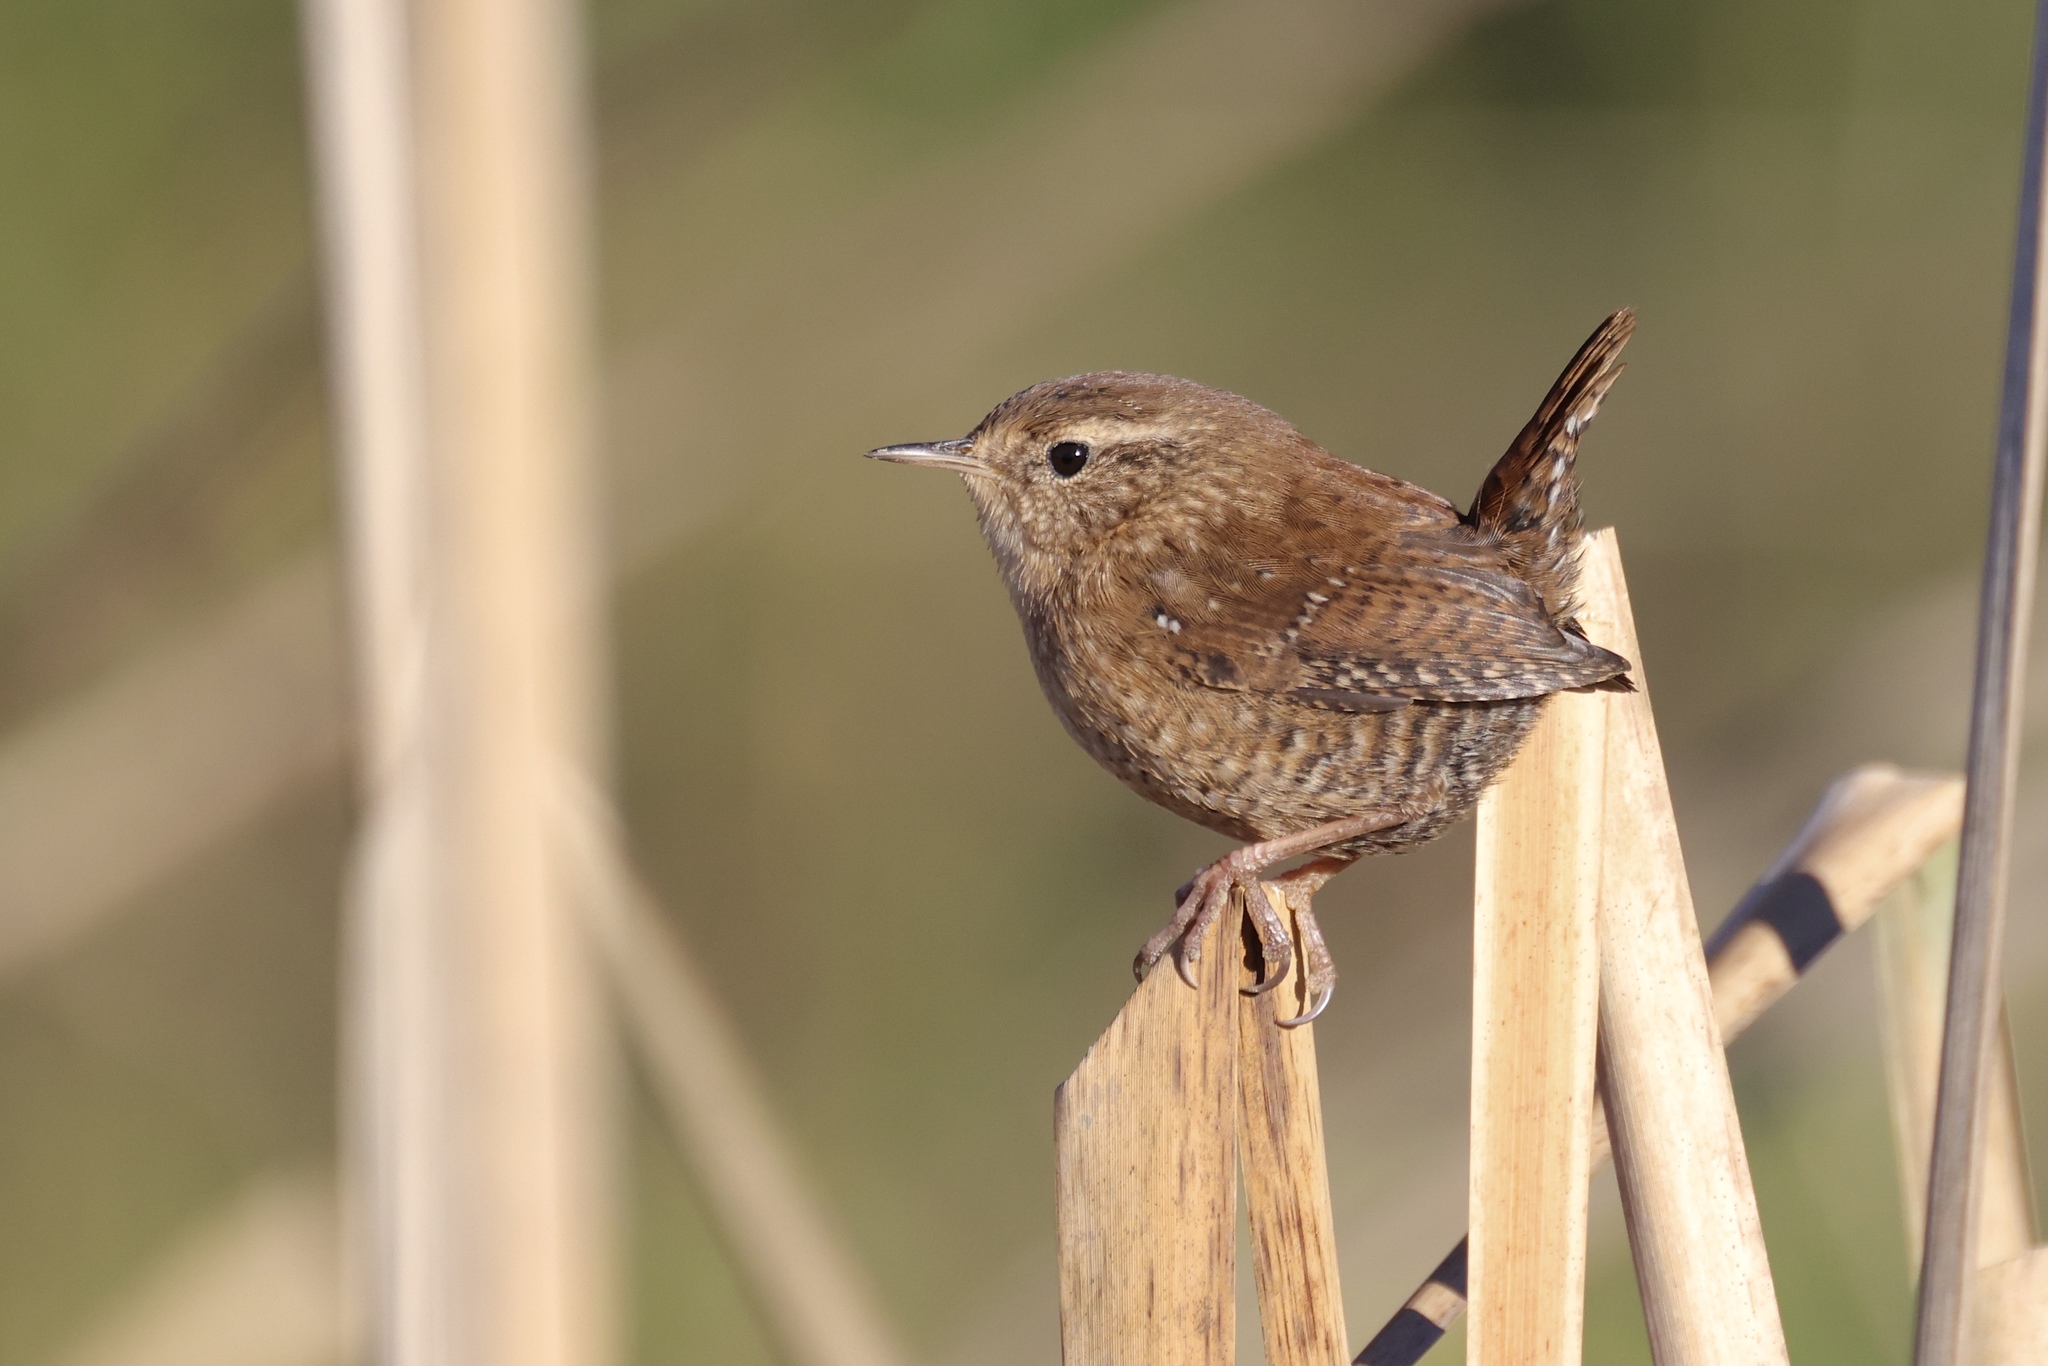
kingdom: Animalia
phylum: Chordata
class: Aves
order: Passeriformes
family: Troglodytidae
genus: Troglodytes
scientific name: Troglodytes hiemalis
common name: Winter wren
